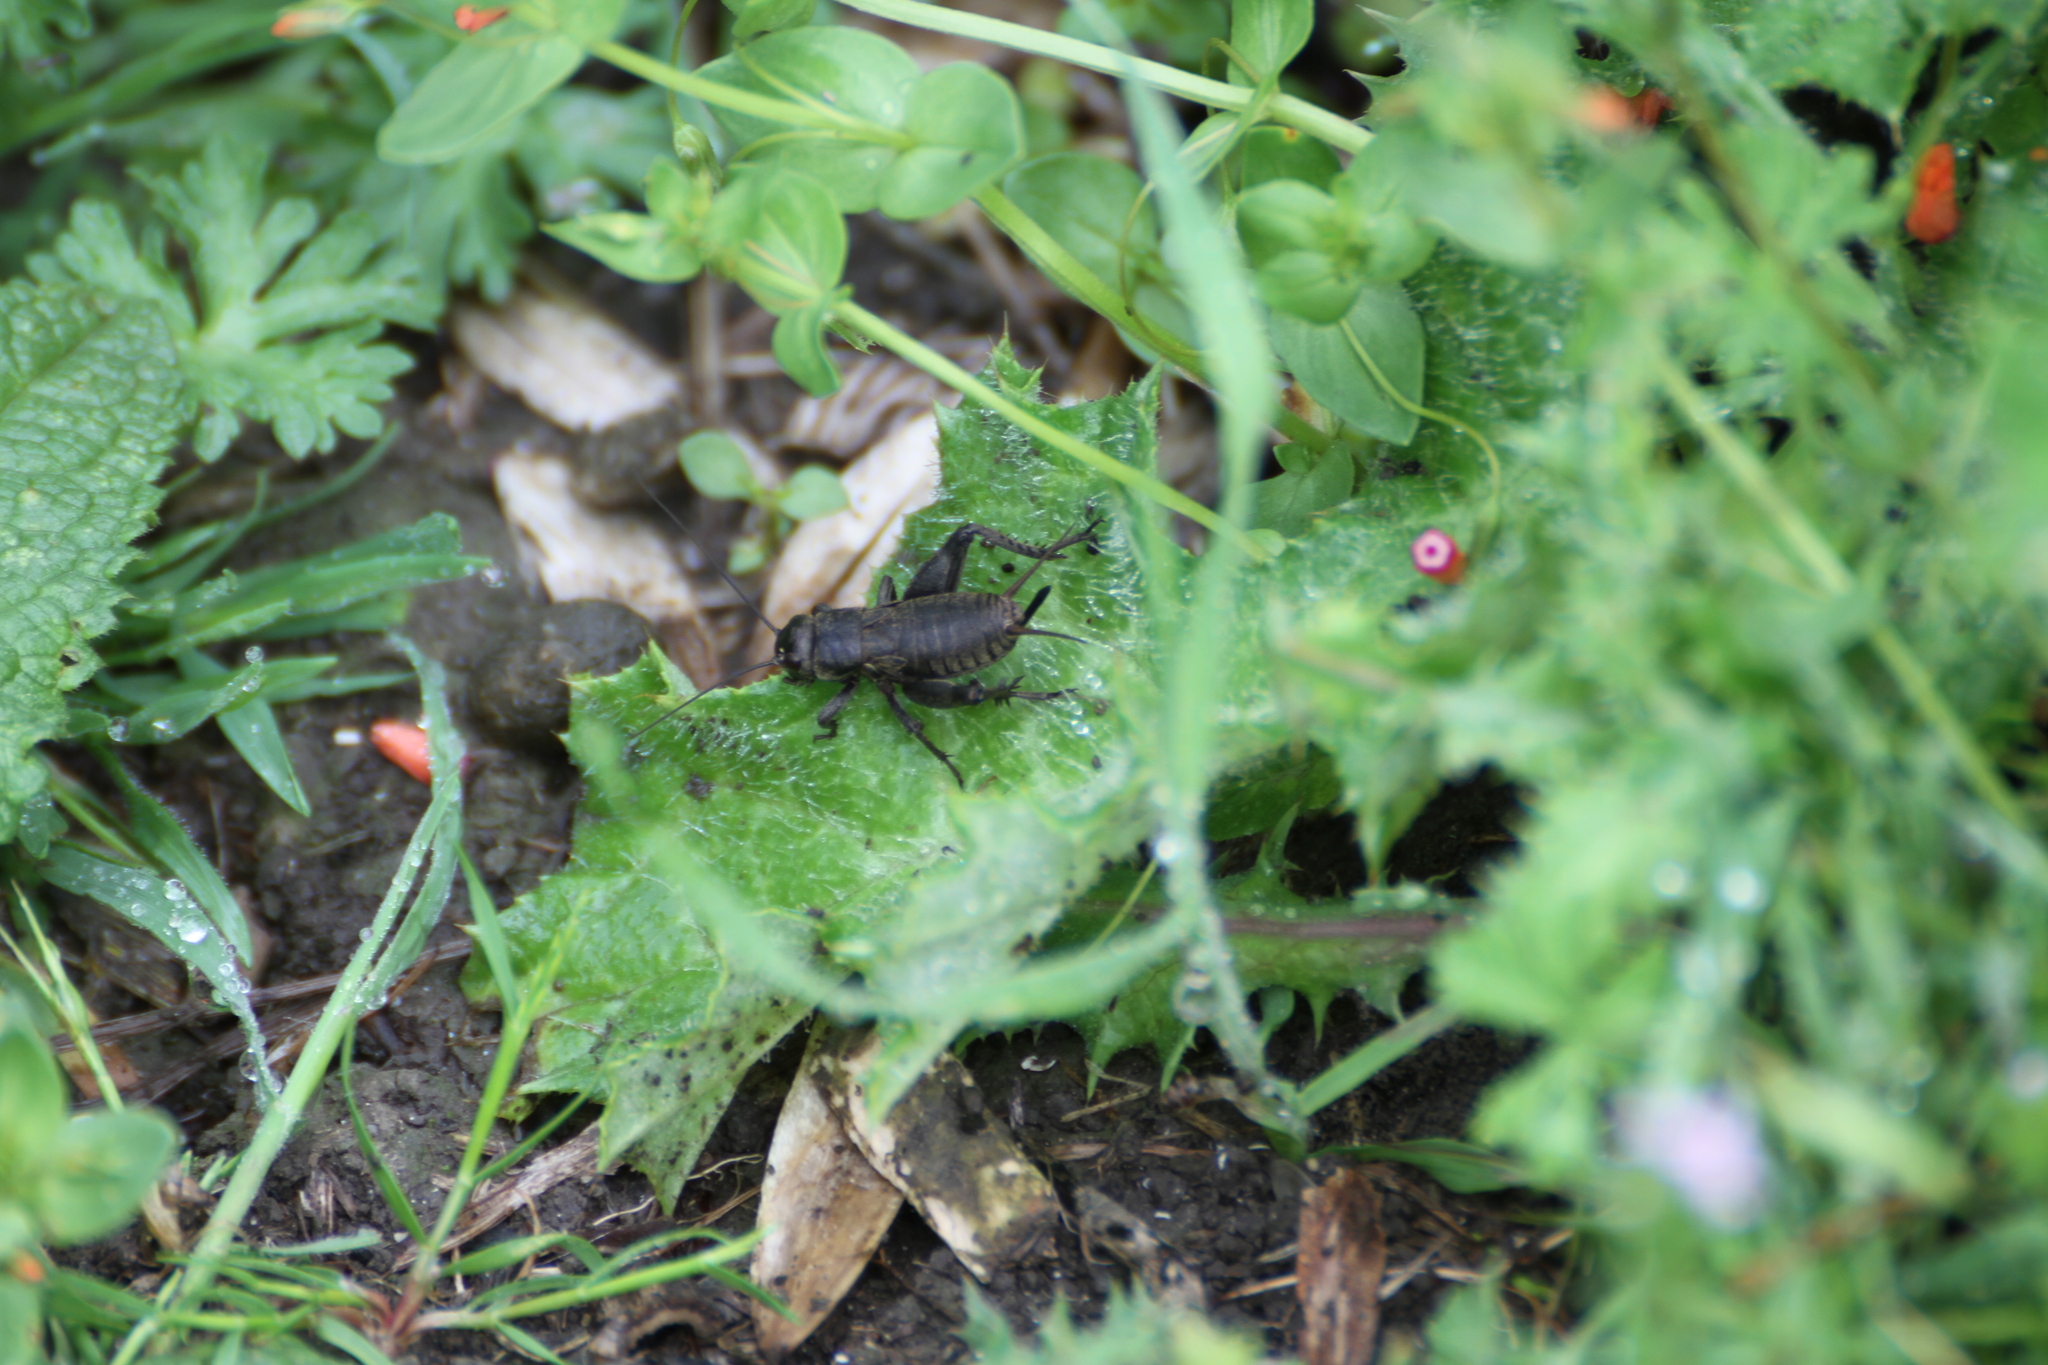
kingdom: Animalia
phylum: Arthropoda
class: Insecta
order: Orthoptera
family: Gryllidae
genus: Melanogryllus
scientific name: Melanogryllus desertus
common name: Desert cricket
